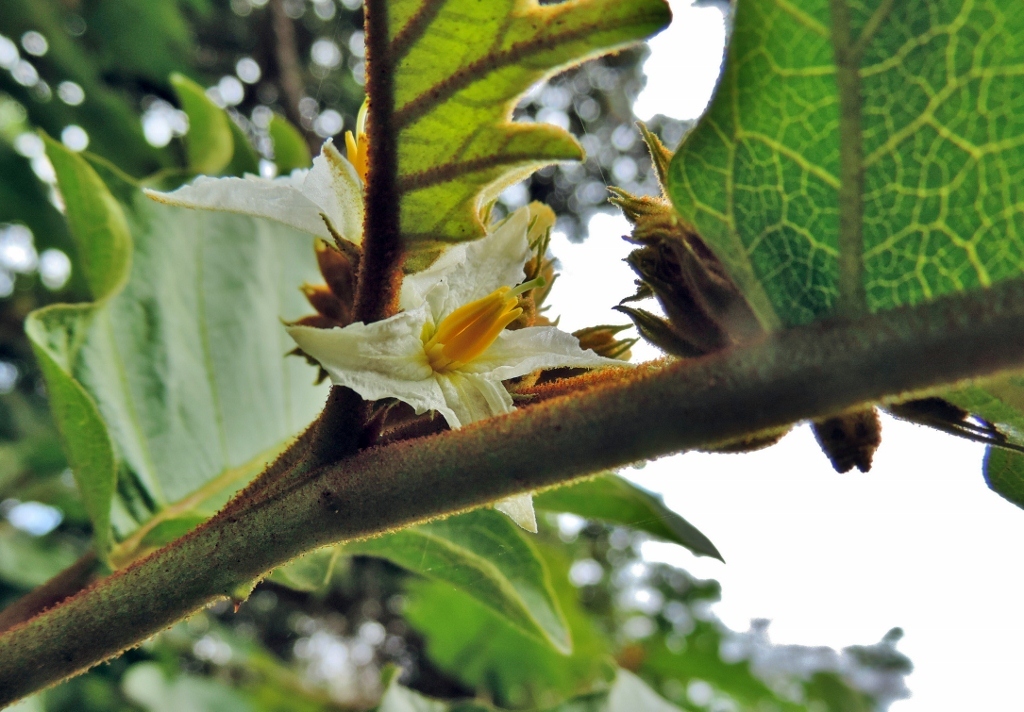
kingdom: Plantae
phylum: Tracheophyta
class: Magnoliopsida
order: Solanales
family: Solanaceae
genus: Solanum
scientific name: Solanum chrysotrichum
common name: Nightshade
